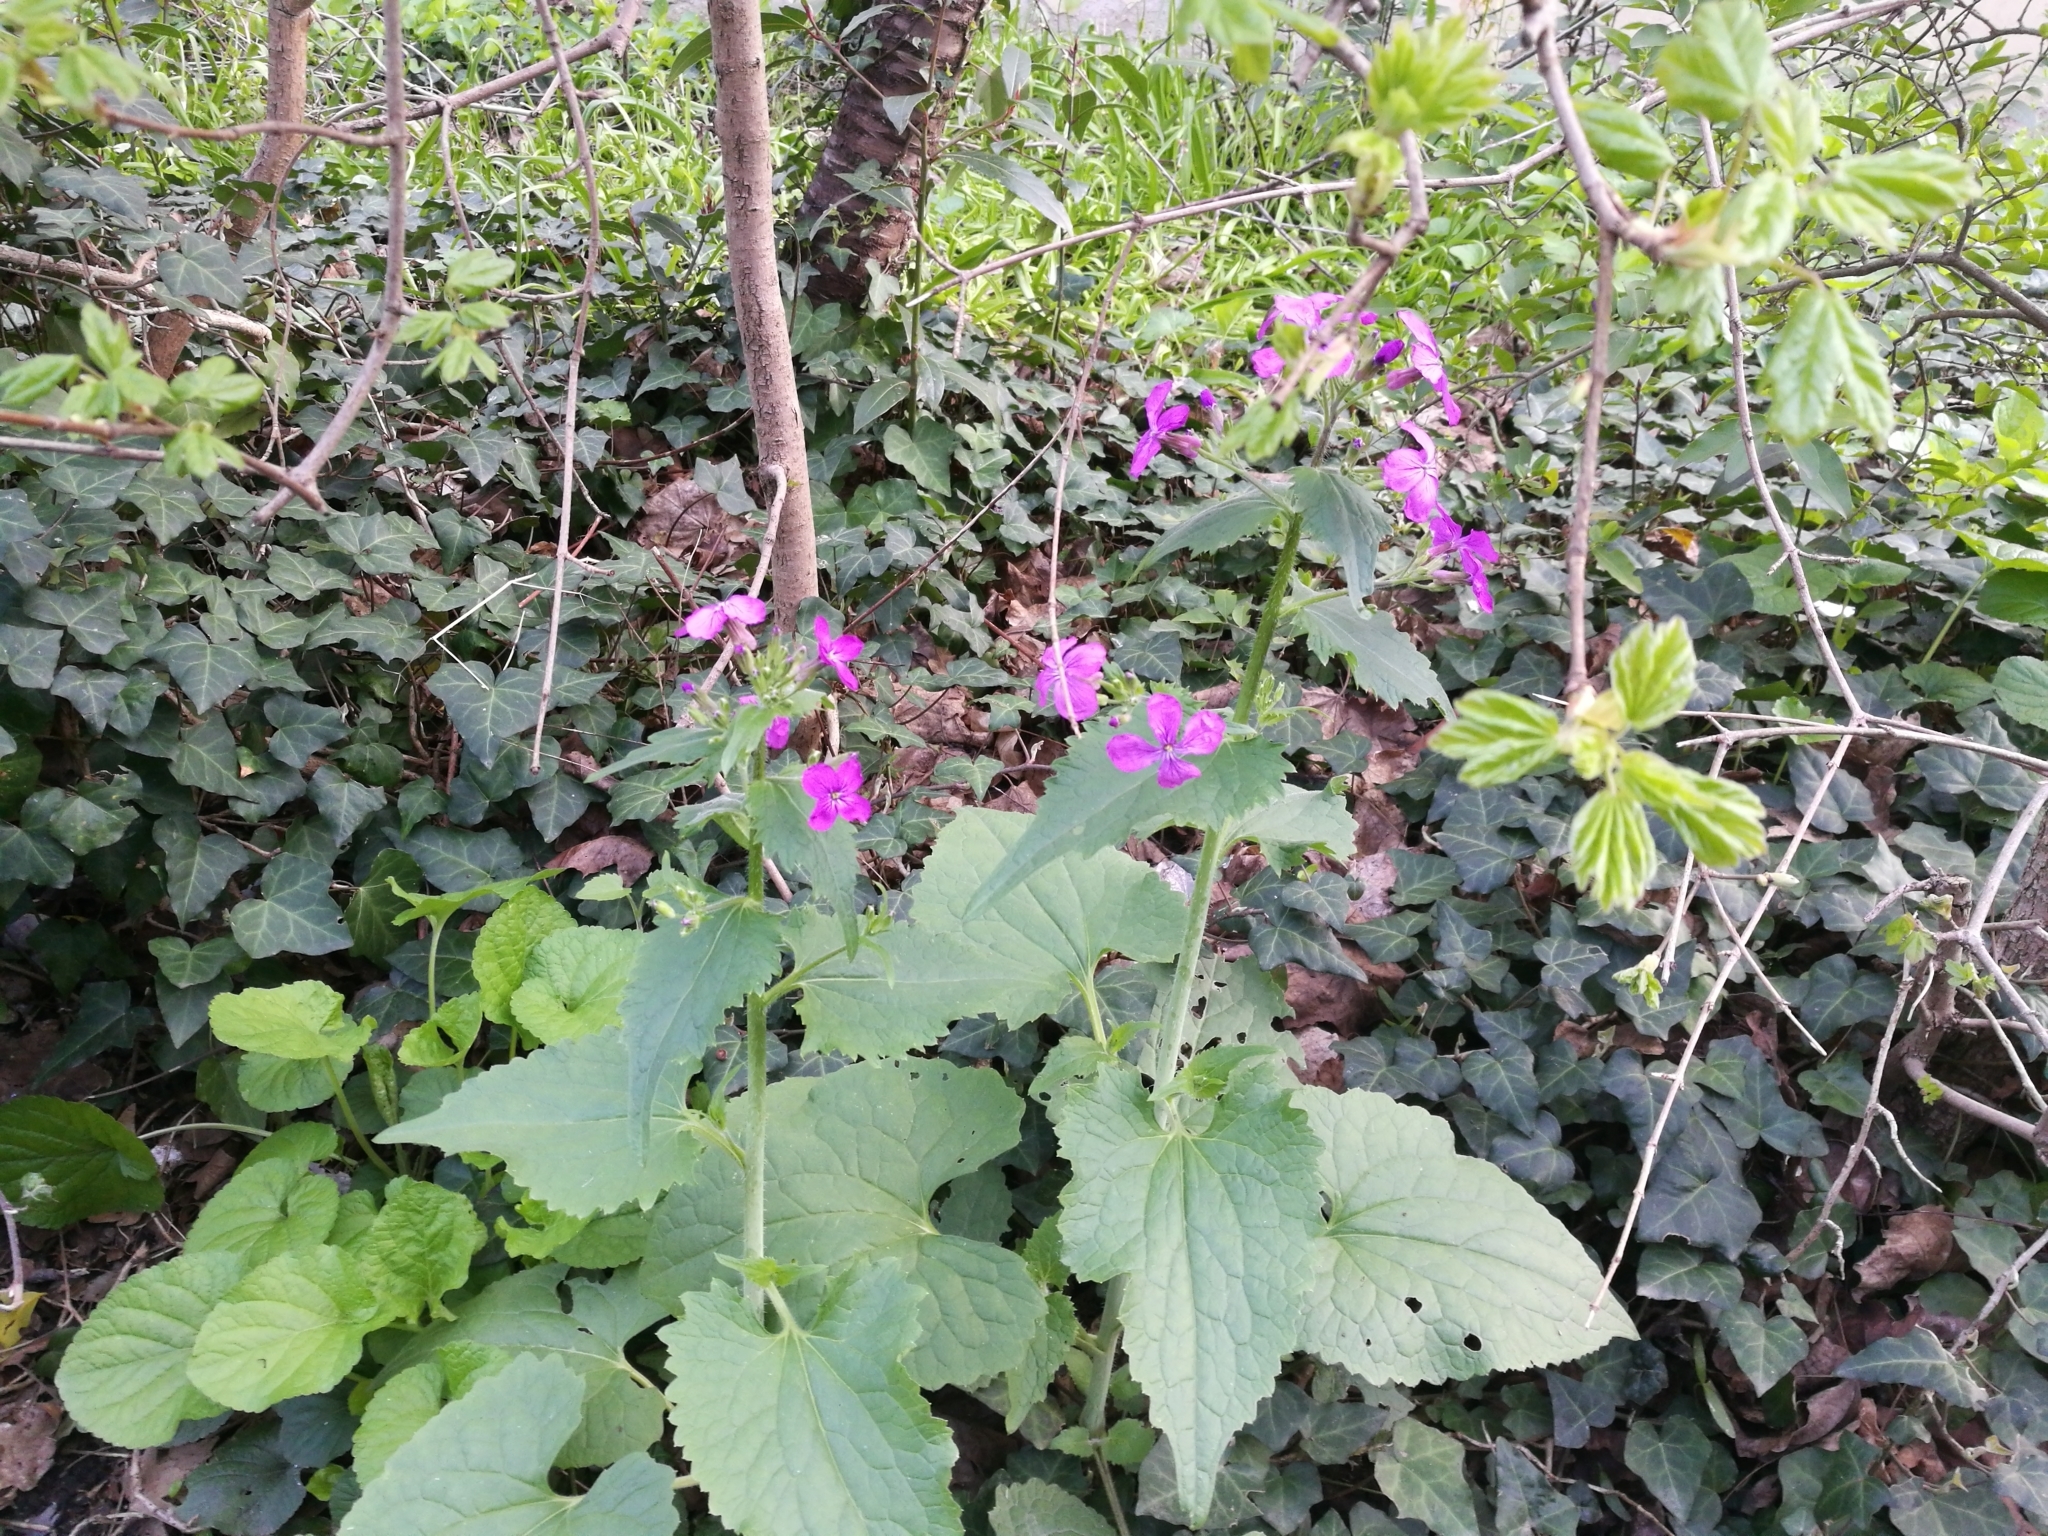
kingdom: Plantae
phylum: Tracheophyta
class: Magnoliopsida
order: Brassicales
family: Brassicaceae
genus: Lunaria
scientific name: Lunaria annua
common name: Honesty
